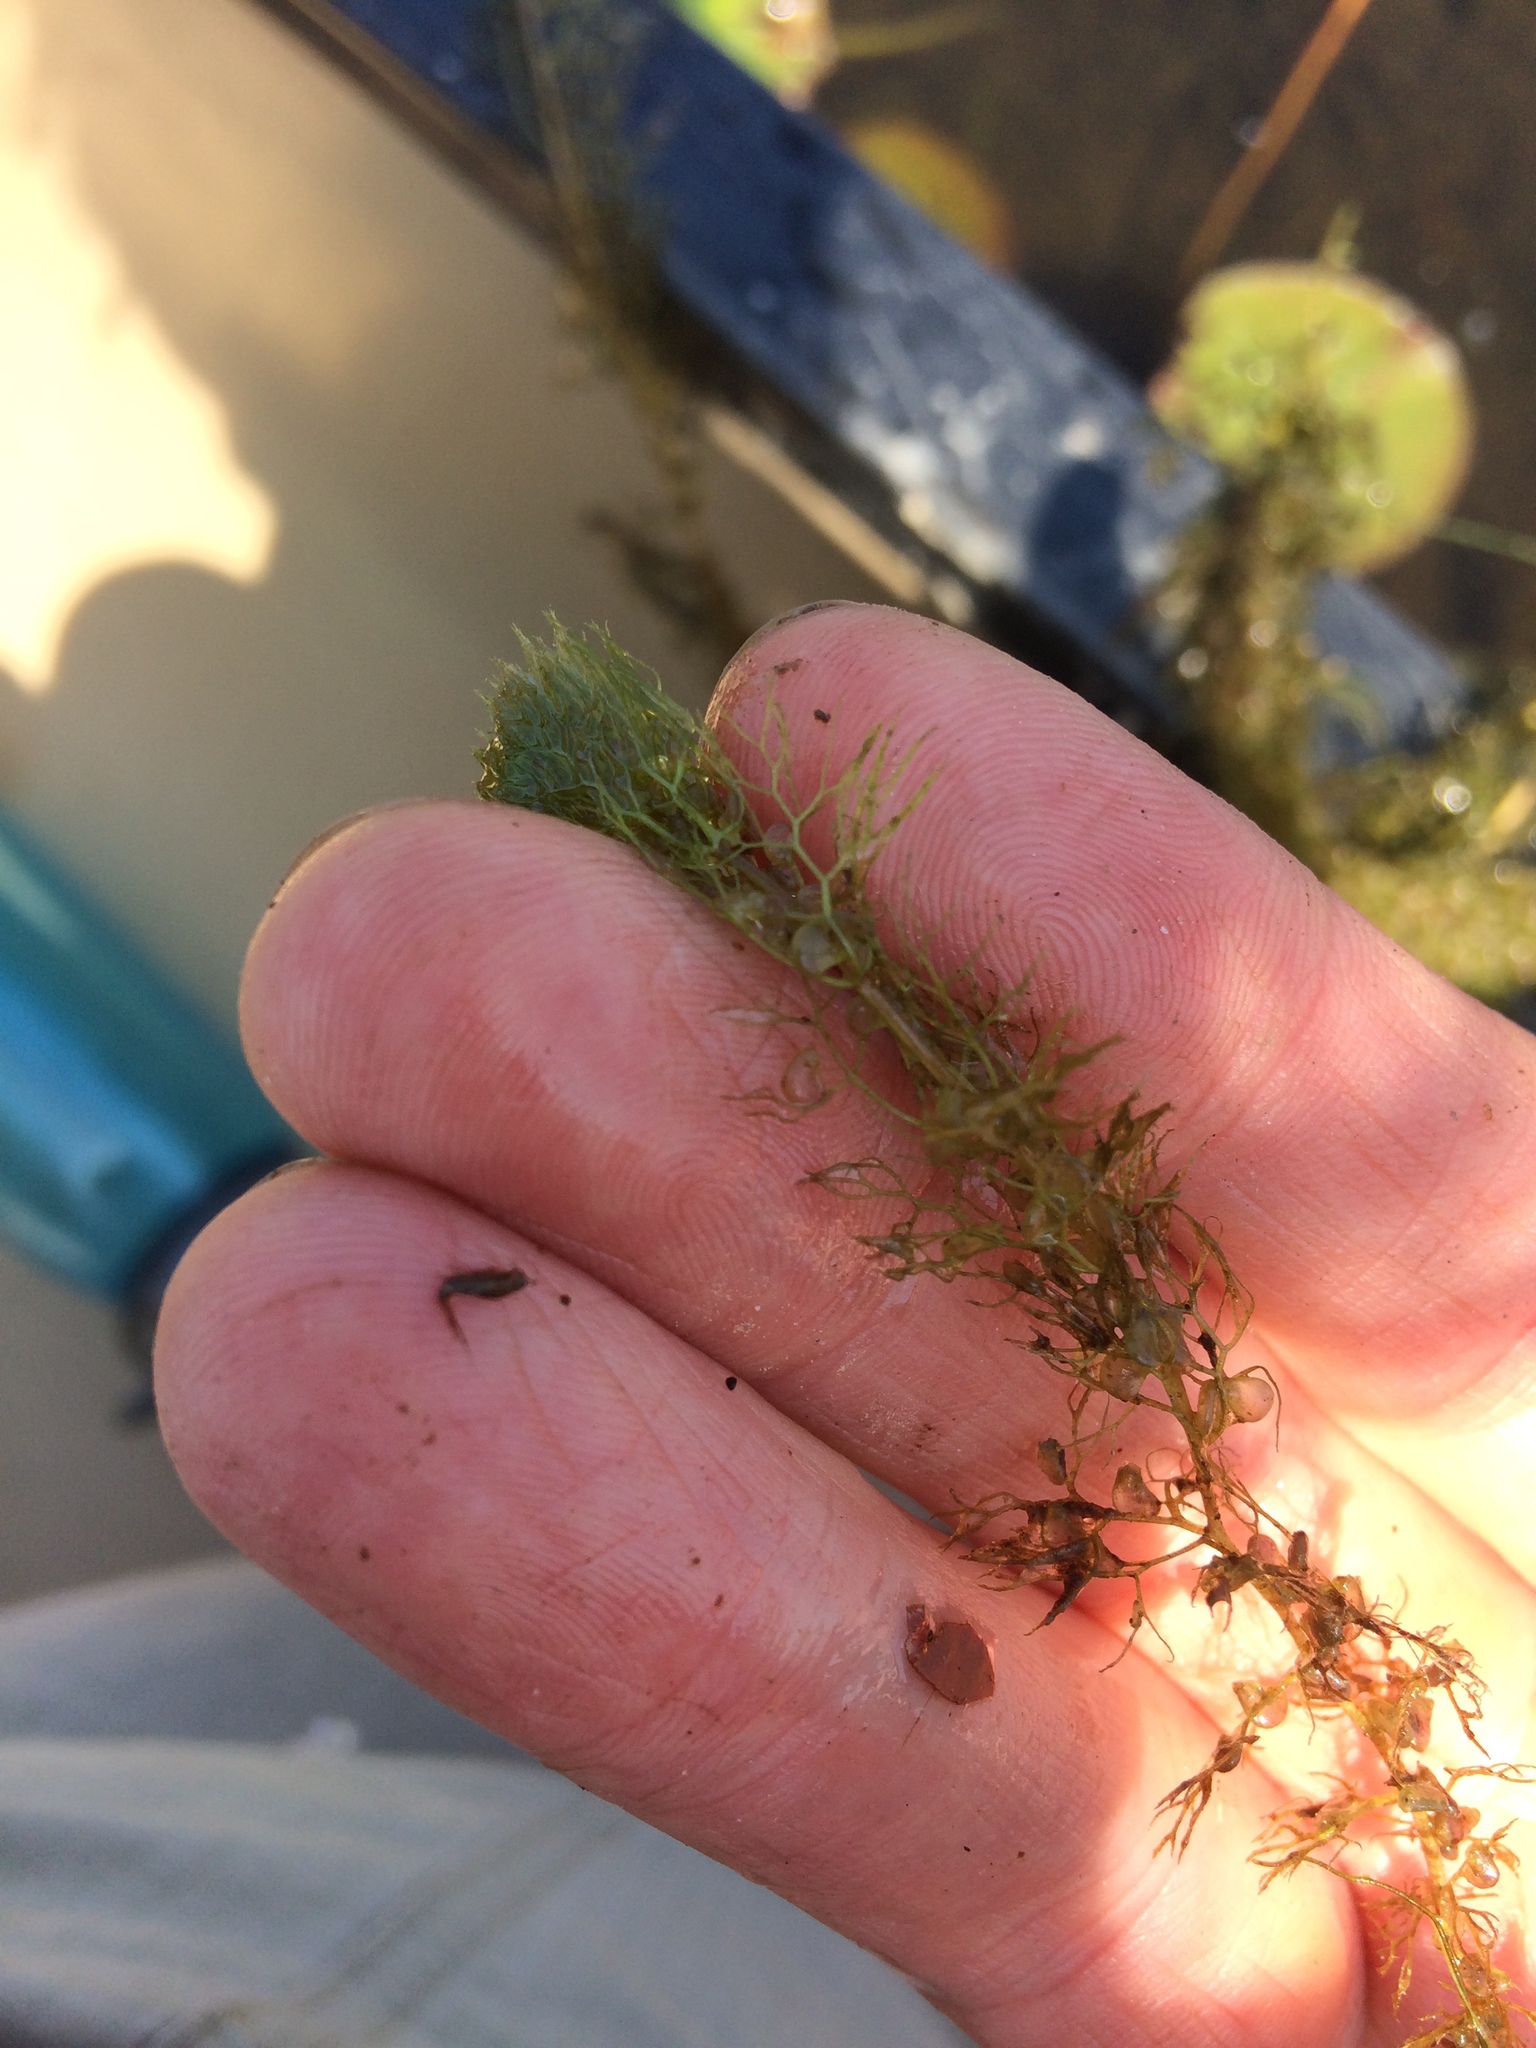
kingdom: Plantae
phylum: Tracheophyta
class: Magnoliopsida
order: Lamiales
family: Lentibulariaceae
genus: Utricularia
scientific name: Utricularia macrorhiza
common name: Common bladderwort
